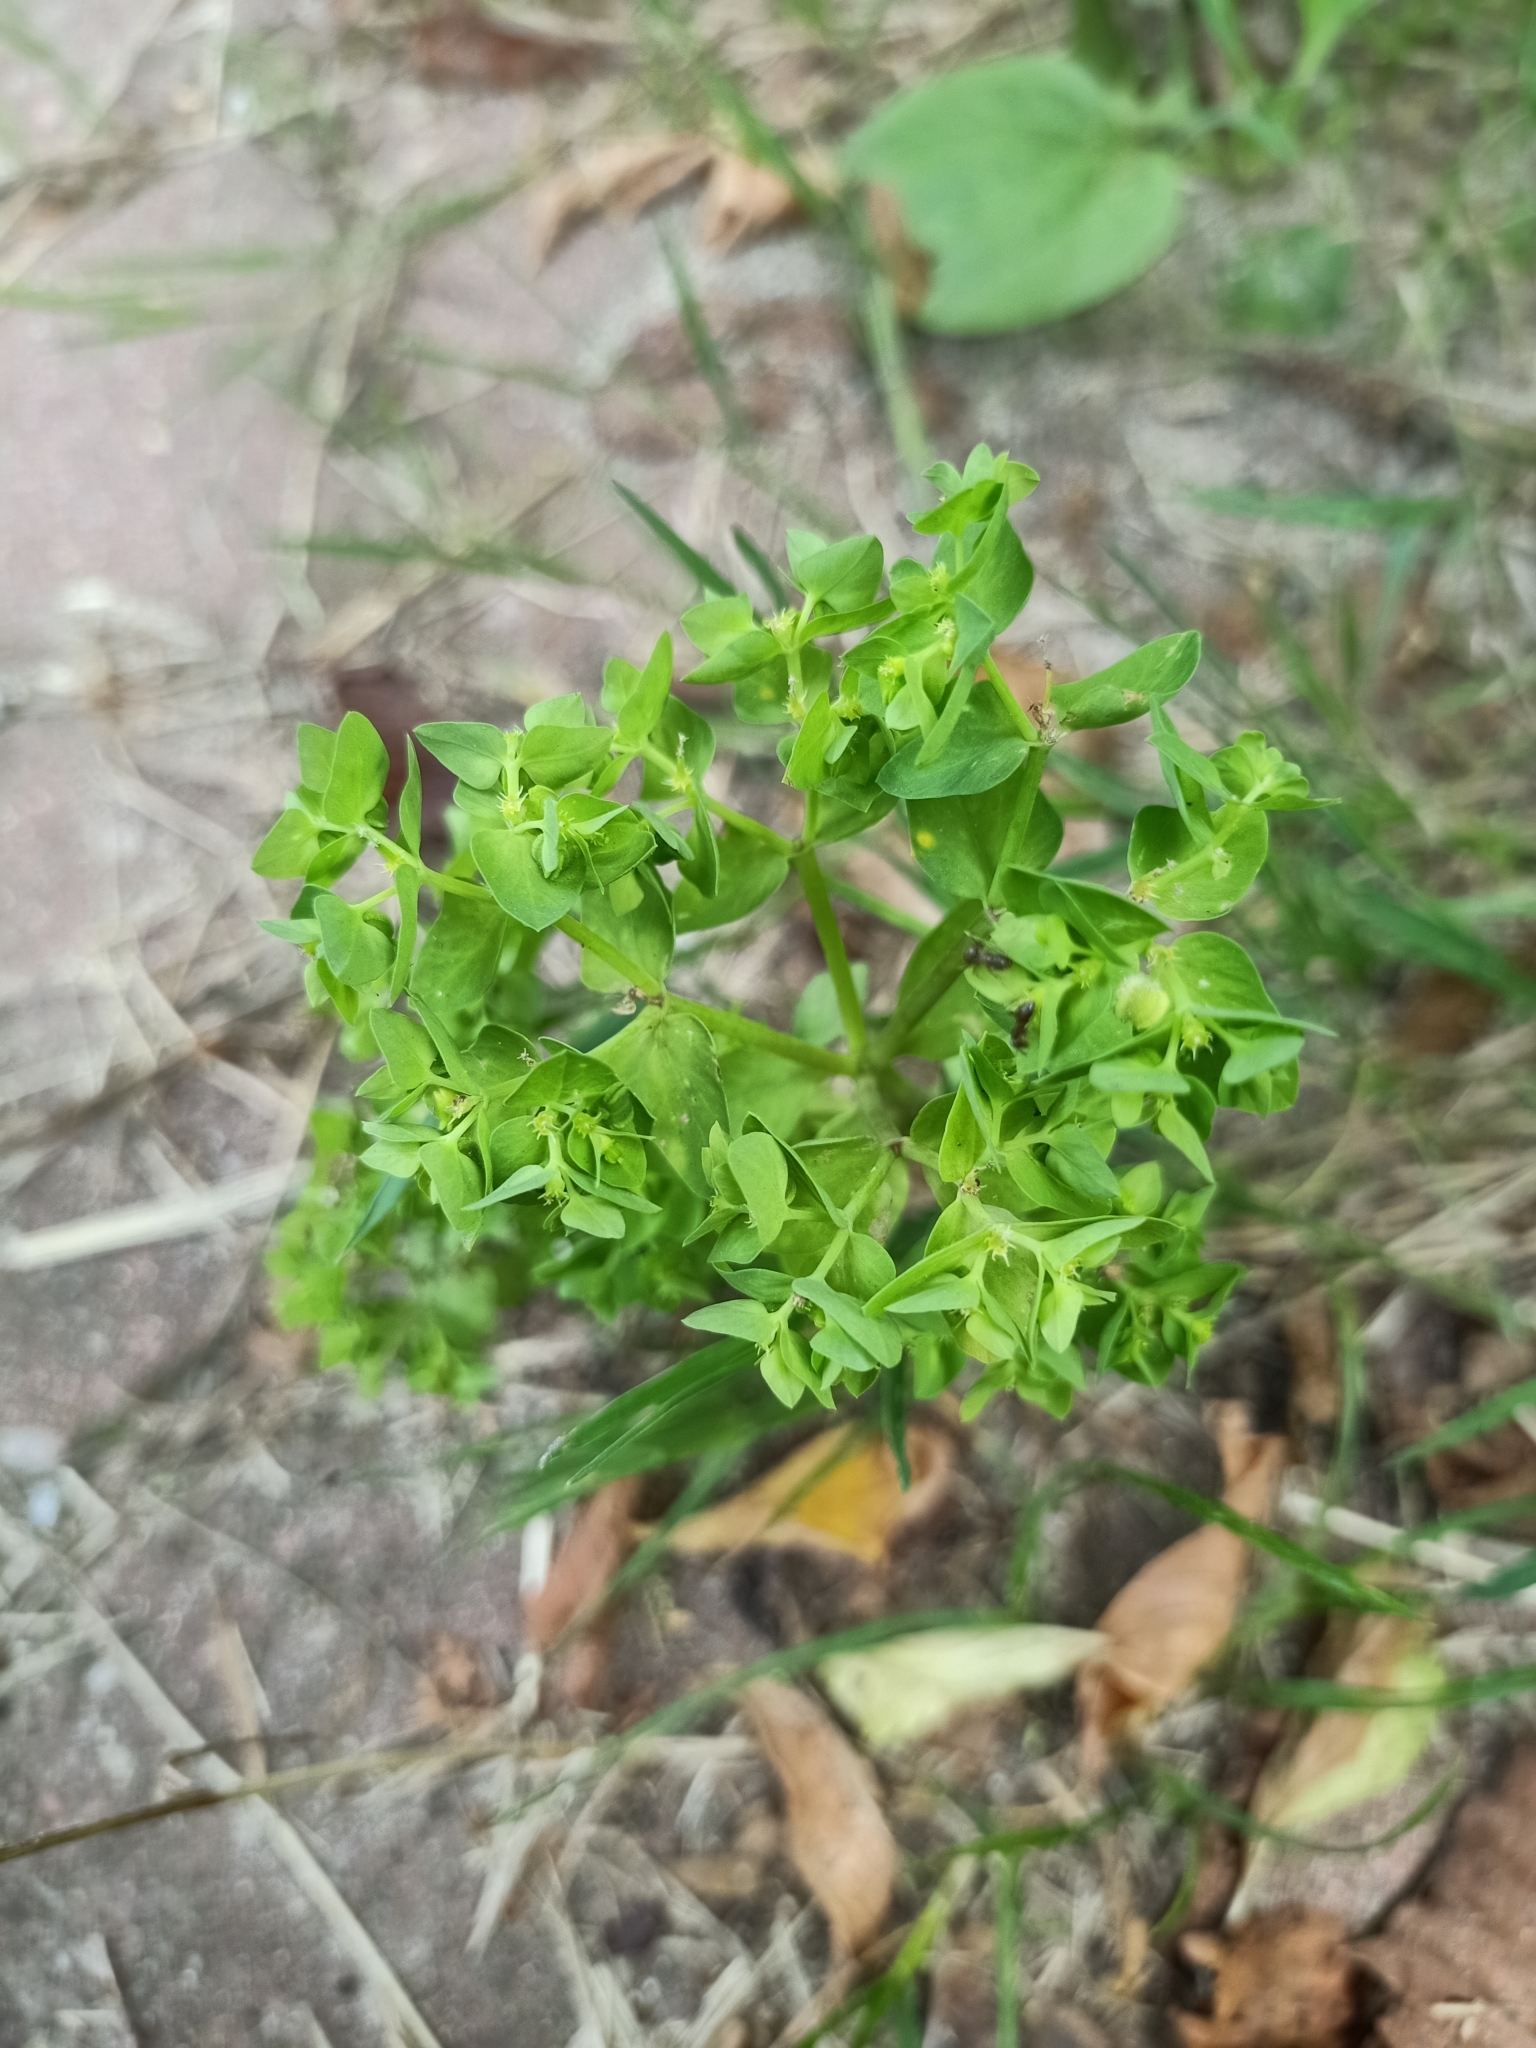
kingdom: Plantae
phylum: Tracheophyta
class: Magnoliopsida
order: Malpighiales
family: Euphorbiaceae
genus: Euphorbia
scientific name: Euphorbia peplus
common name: Petty spurge
